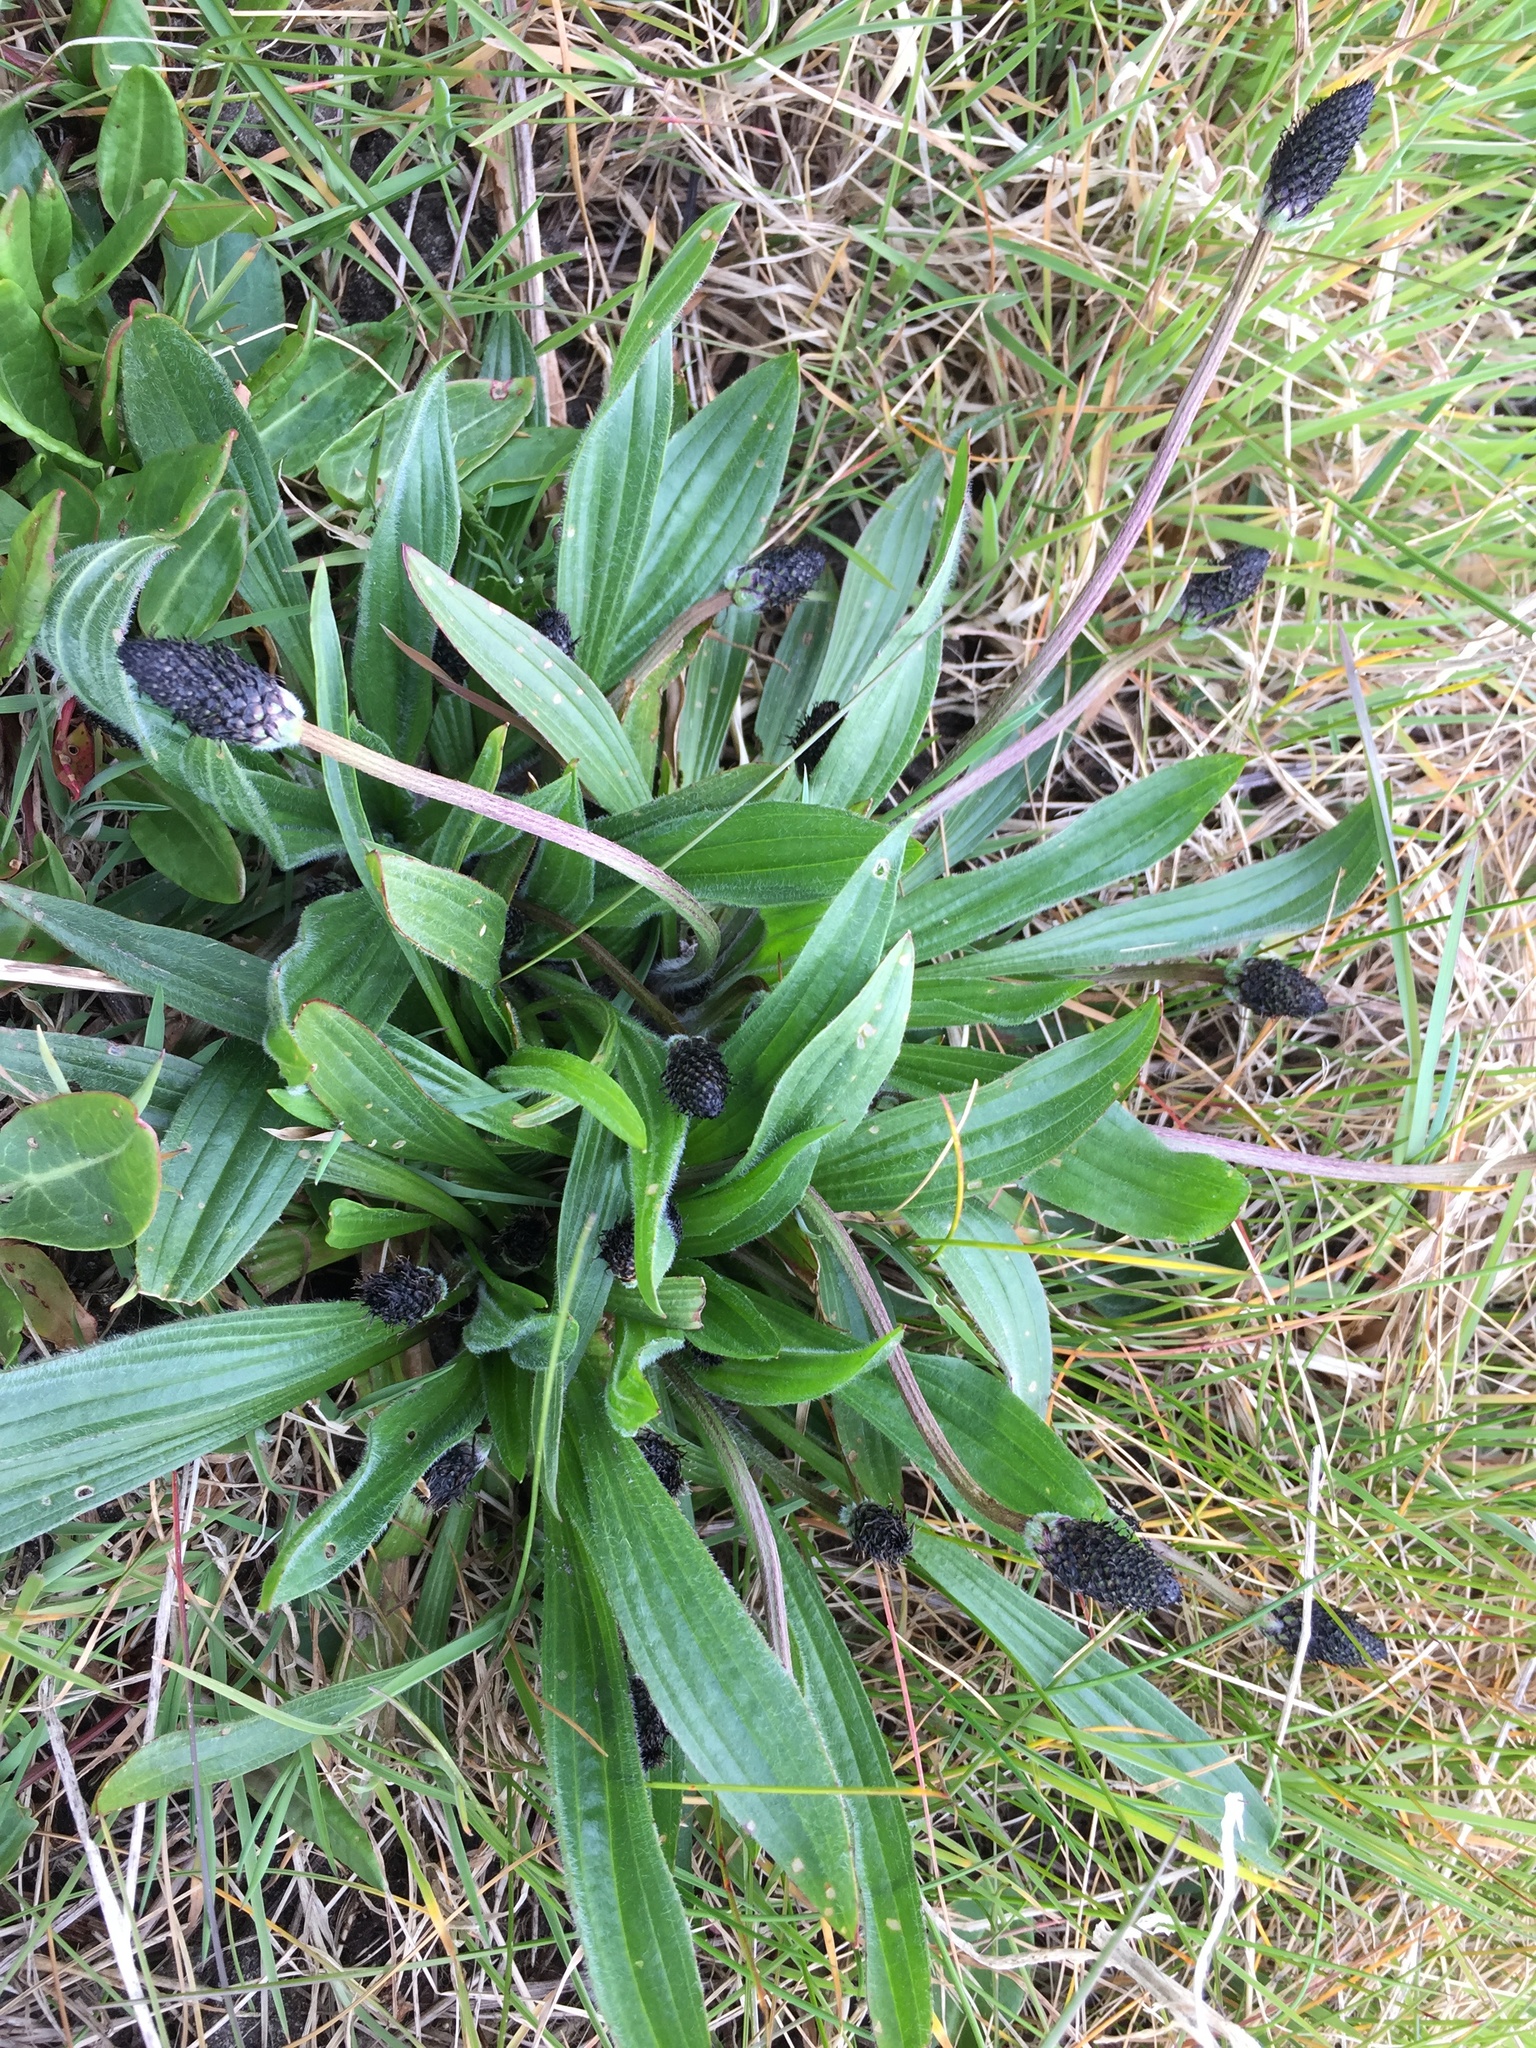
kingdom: Plantae
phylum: Tracheophyta
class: Magnoliopsida
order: Lamiales
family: Plantaginaceae
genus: Plantago
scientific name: Plantago lanceolata
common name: Ribwort plantain
